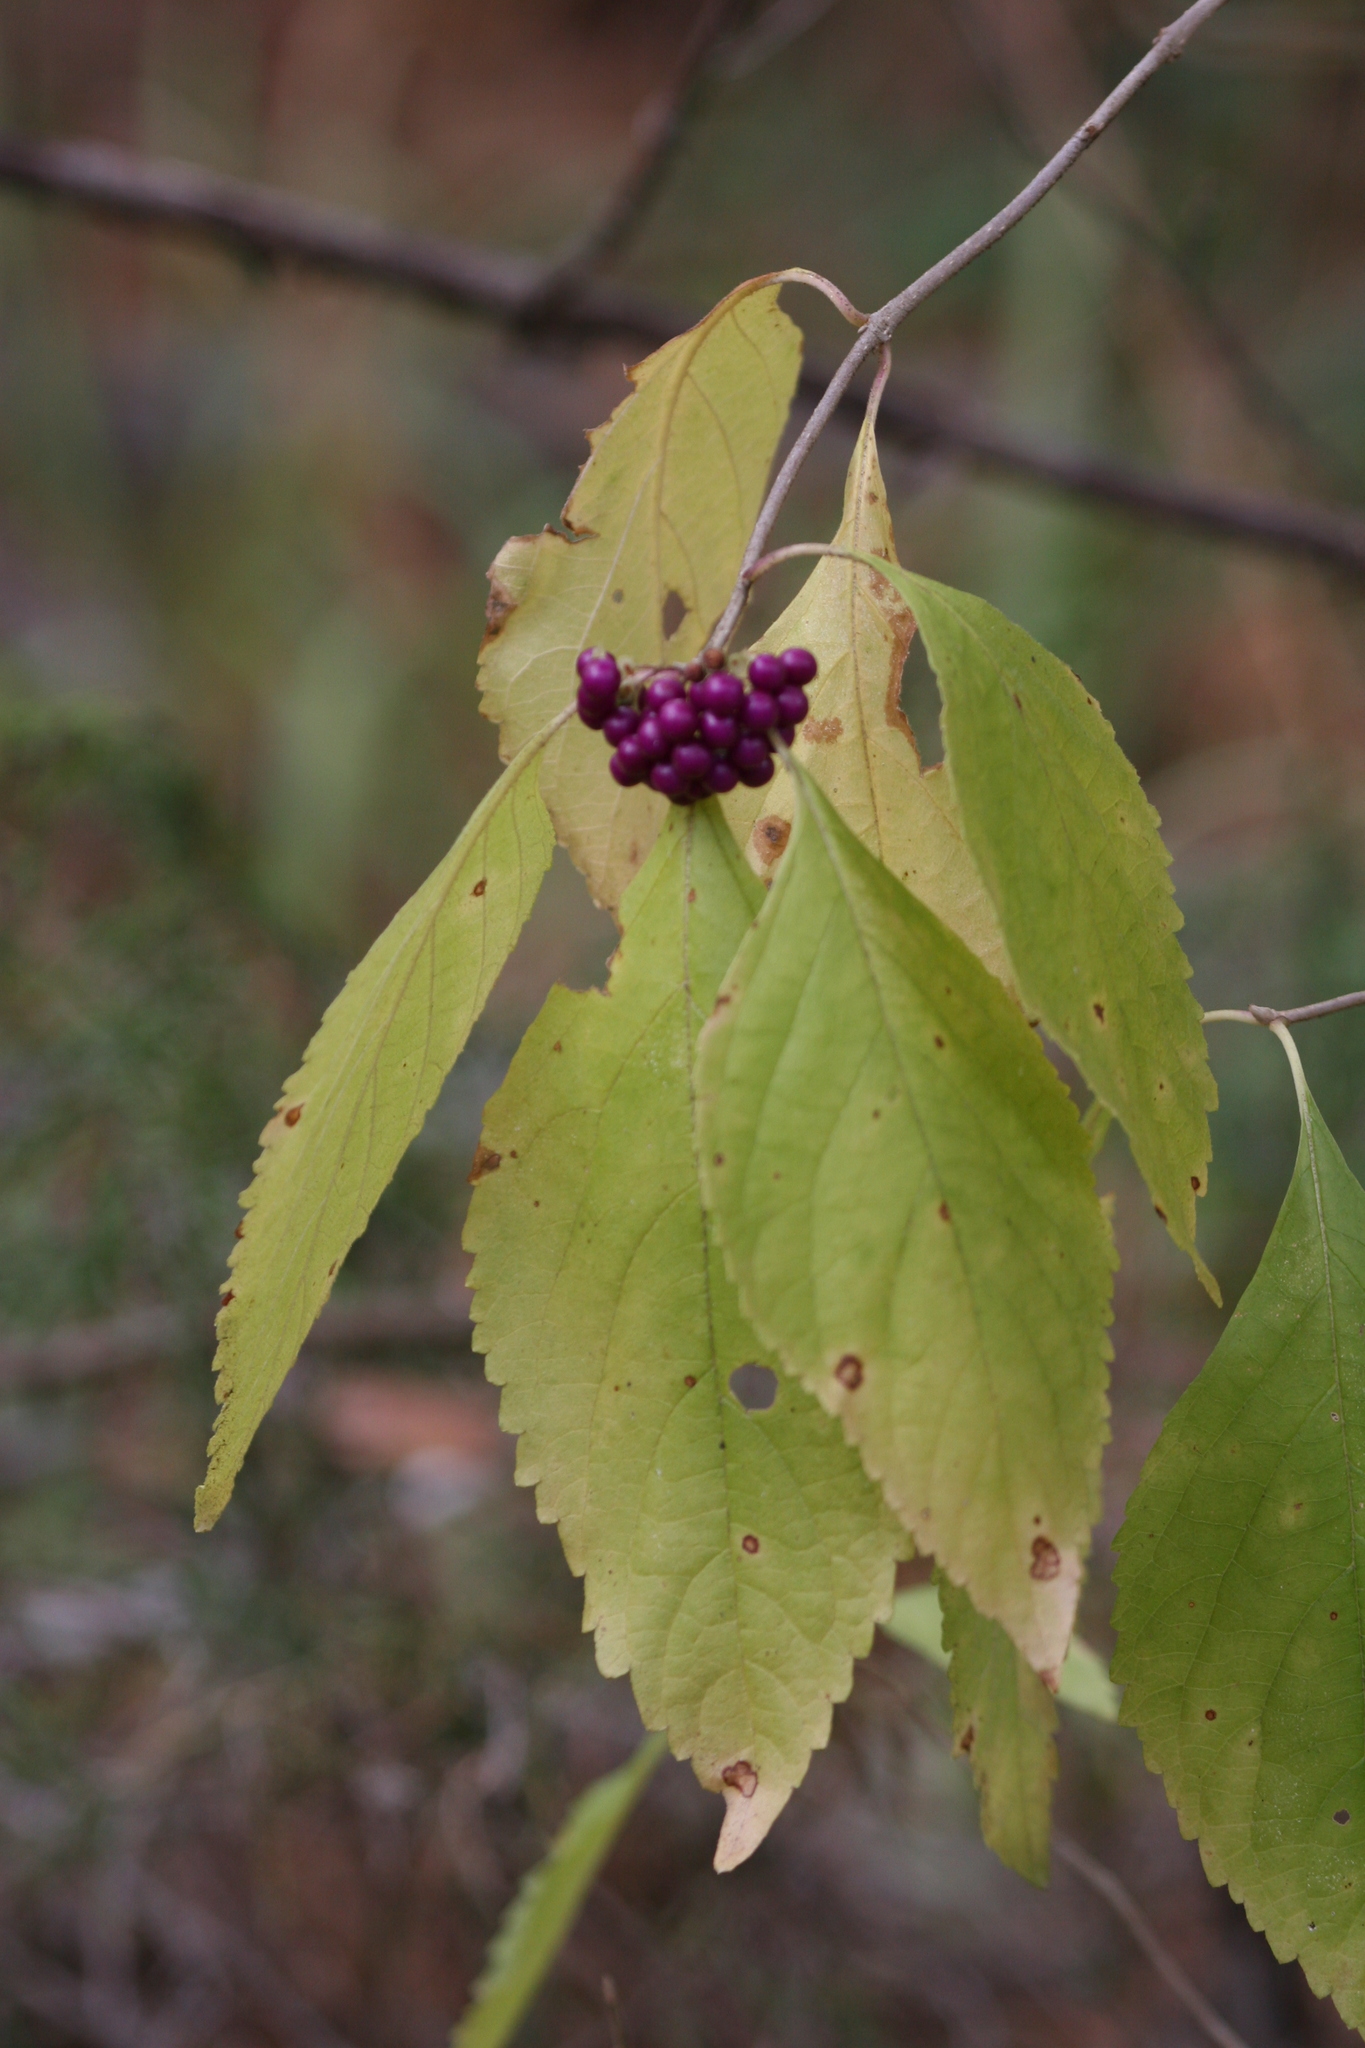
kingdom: Plantae
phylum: Tracheophyta
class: Magnoliopsida
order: Lamiales
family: Lamiaceae
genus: Callicarpa
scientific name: Callicarpa americana
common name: American beautyberry
